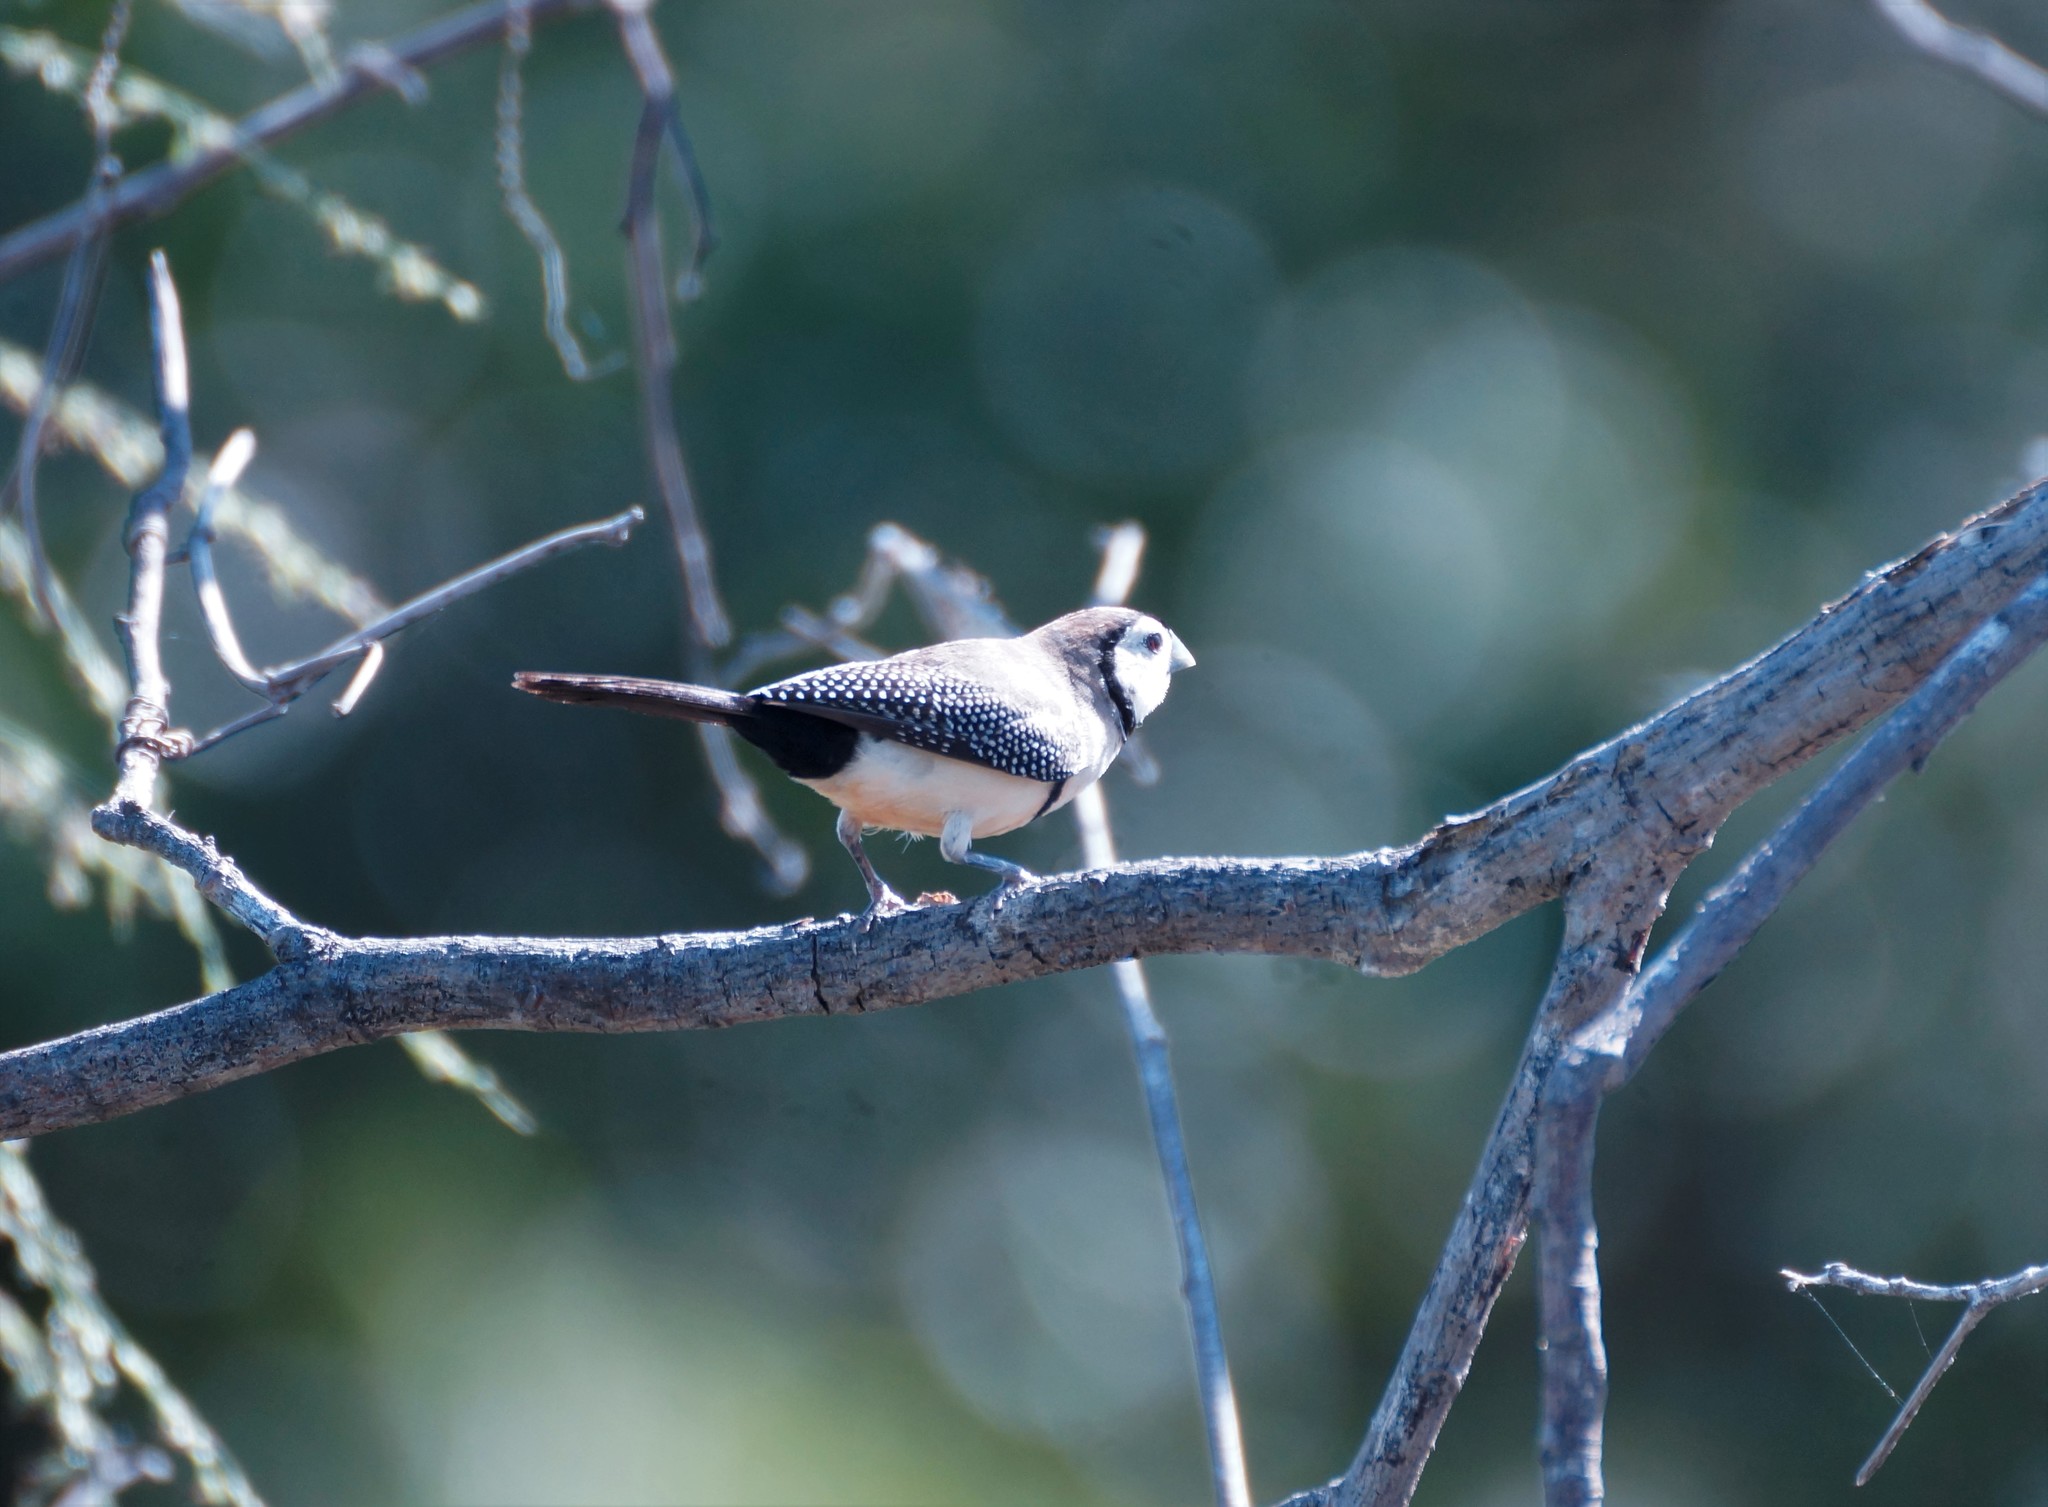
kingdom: Animalia
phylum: Chordata
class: Aves
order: Passeriformes
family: Estrildidae
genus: Taeniopygia
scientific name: Taeniopygia bichenovii
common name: Double-barred finch
